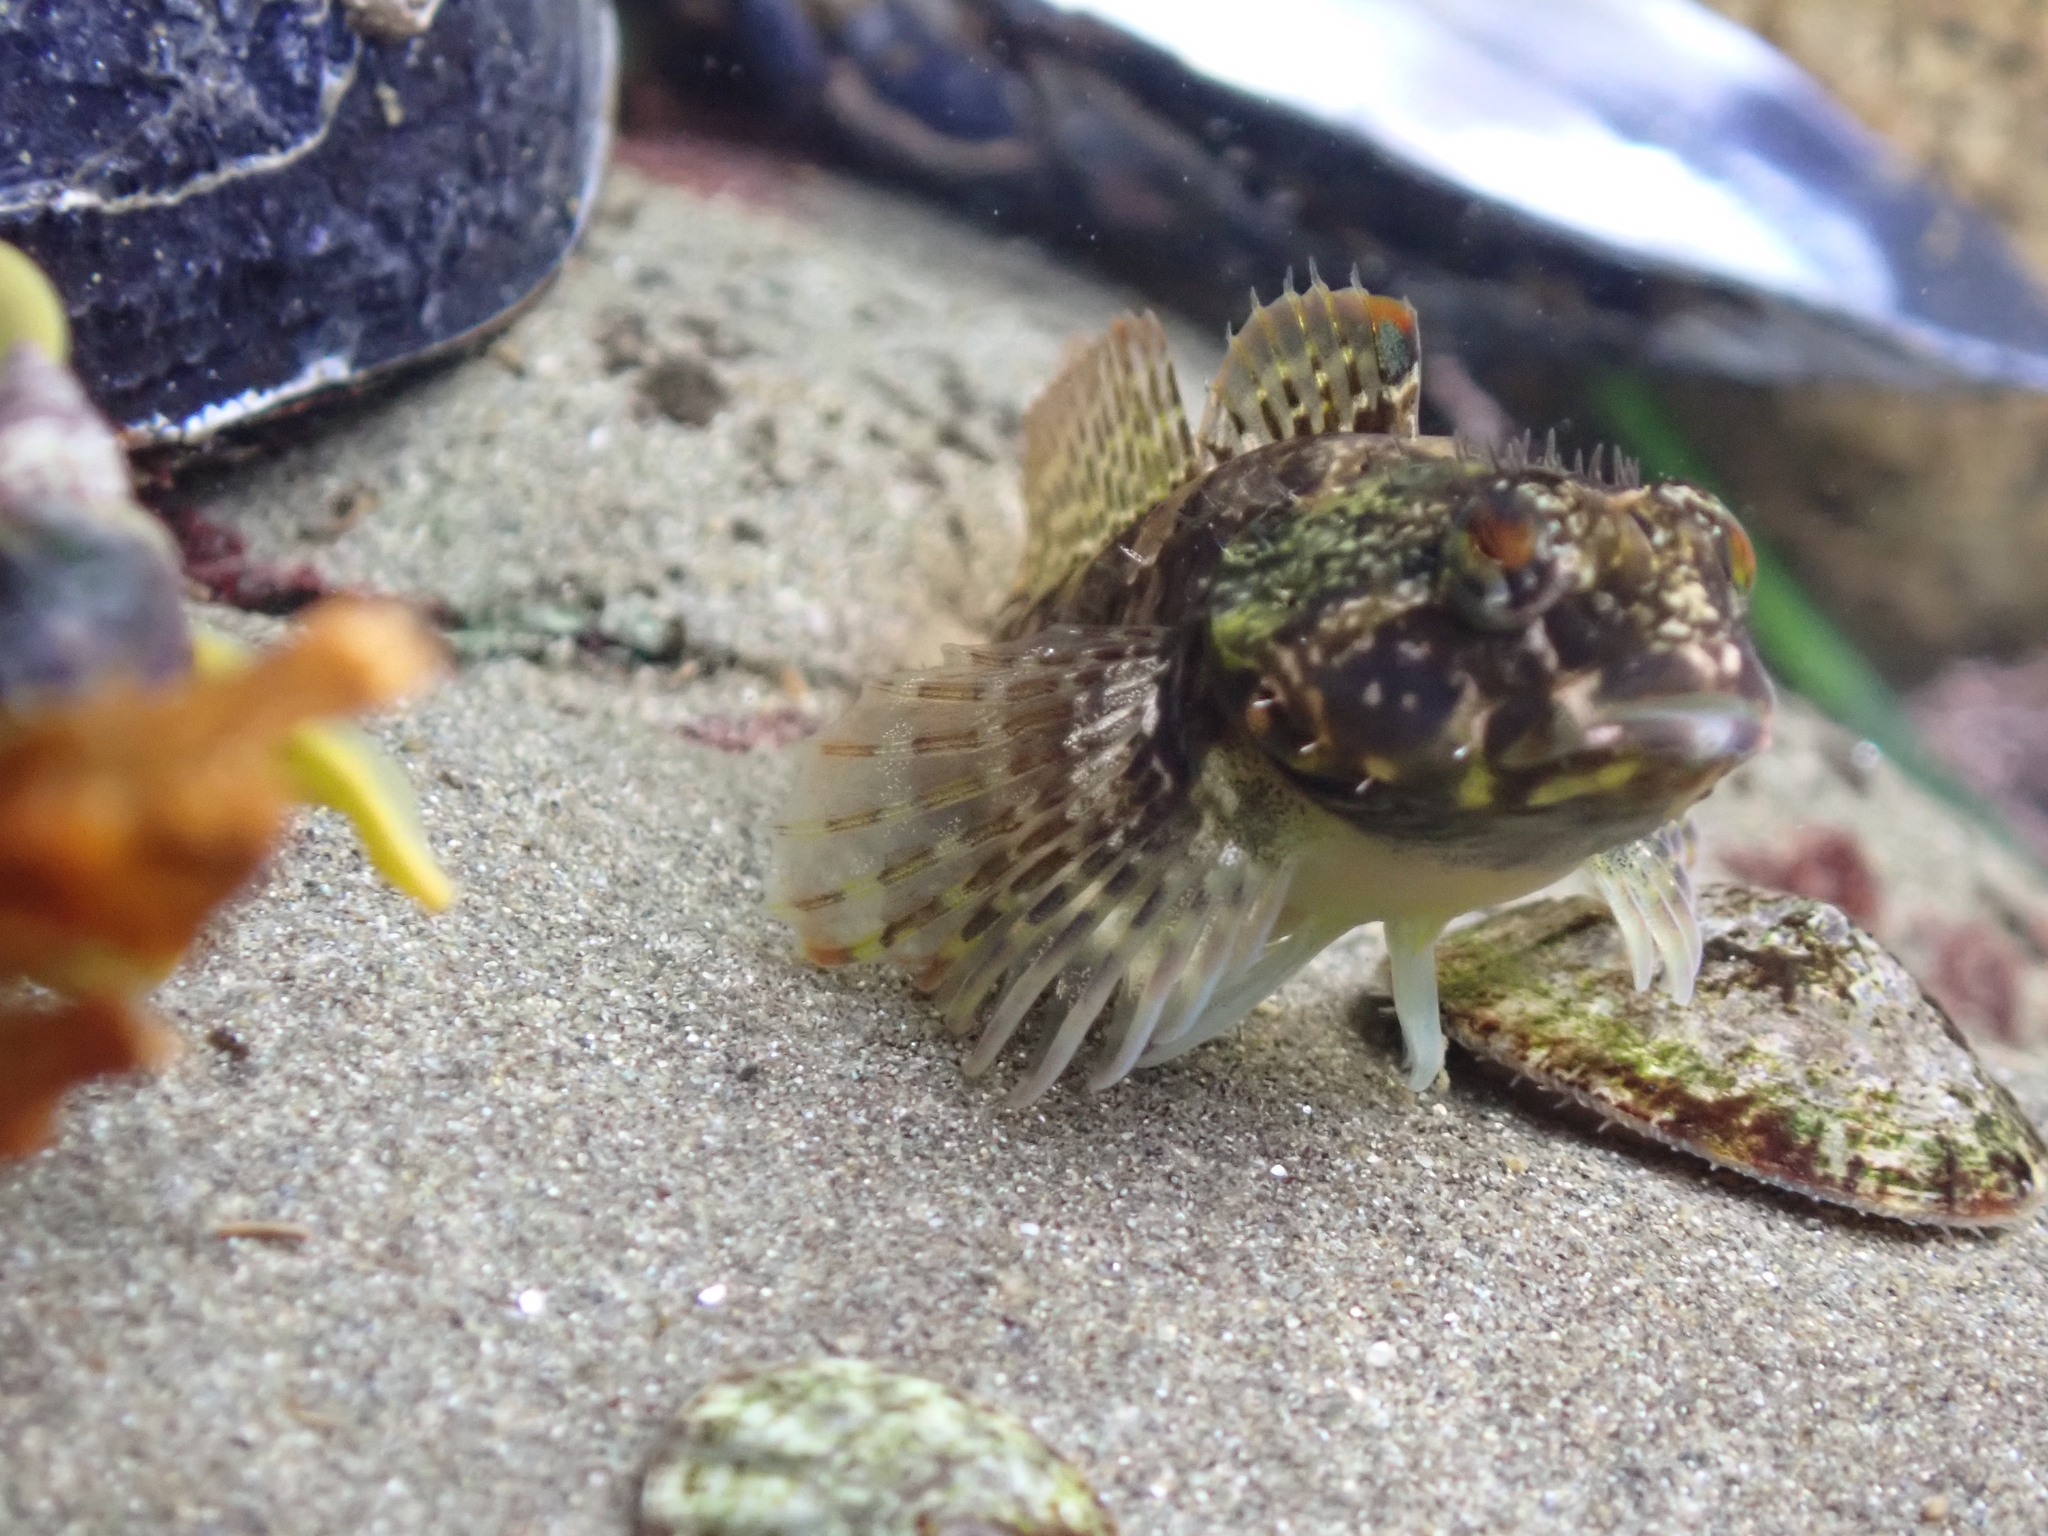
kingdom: Animalia
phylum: Chordata
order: Scorpaeniformes
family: Cottidae
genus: Oligocottus
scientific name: Oligocottus maculosus
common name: Tidepool sculpin
